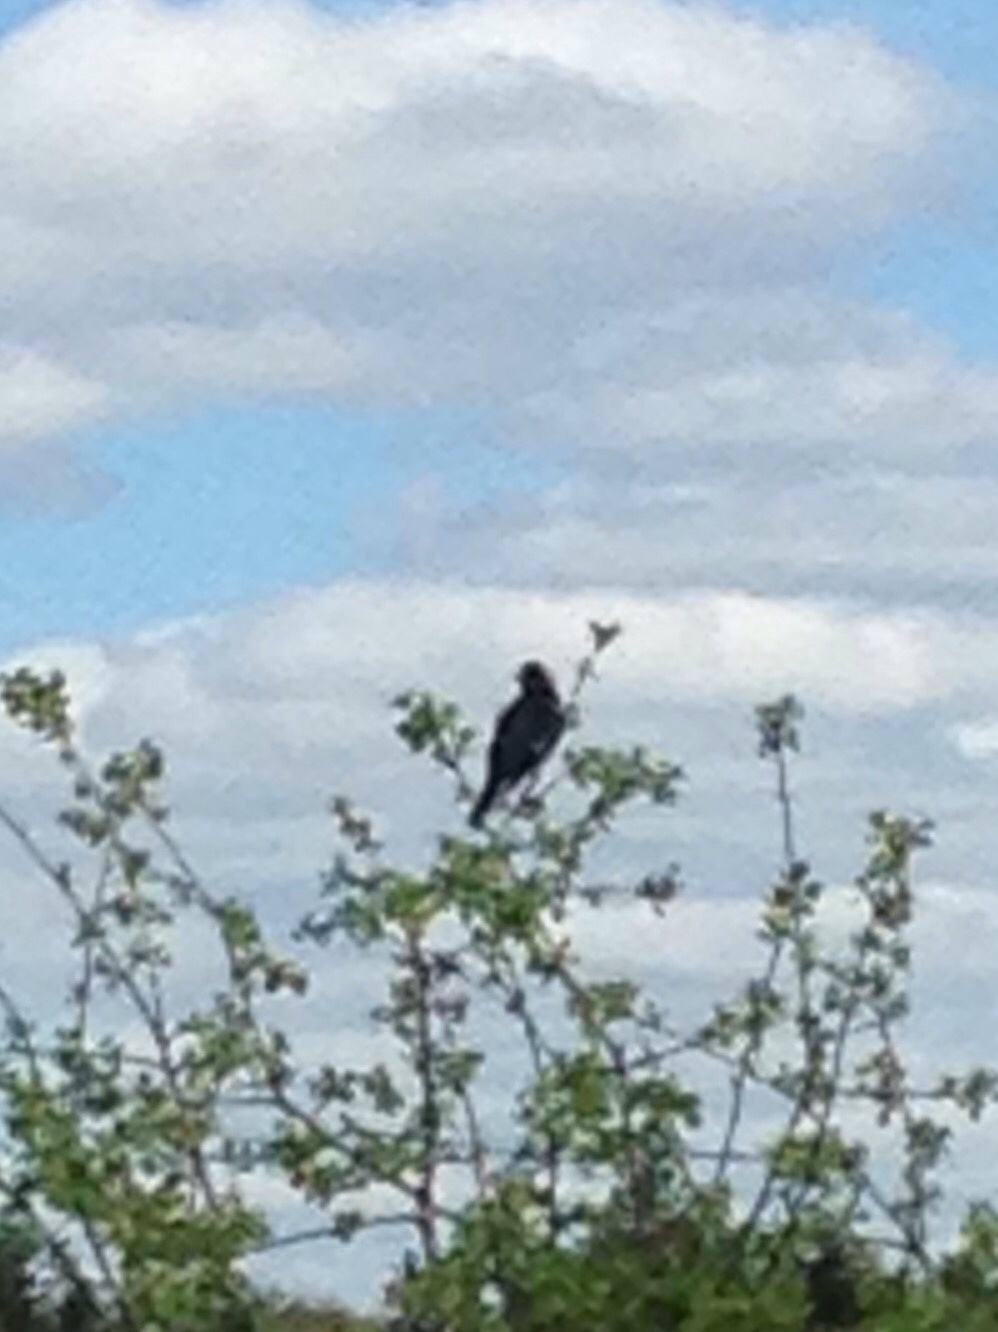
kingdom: Animalia
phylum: Chordata
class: Aves
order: Passeriformes
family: Icteridae
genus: Dolichonyx
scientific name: Dolichonyx oryzivorus
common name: Bobolink
